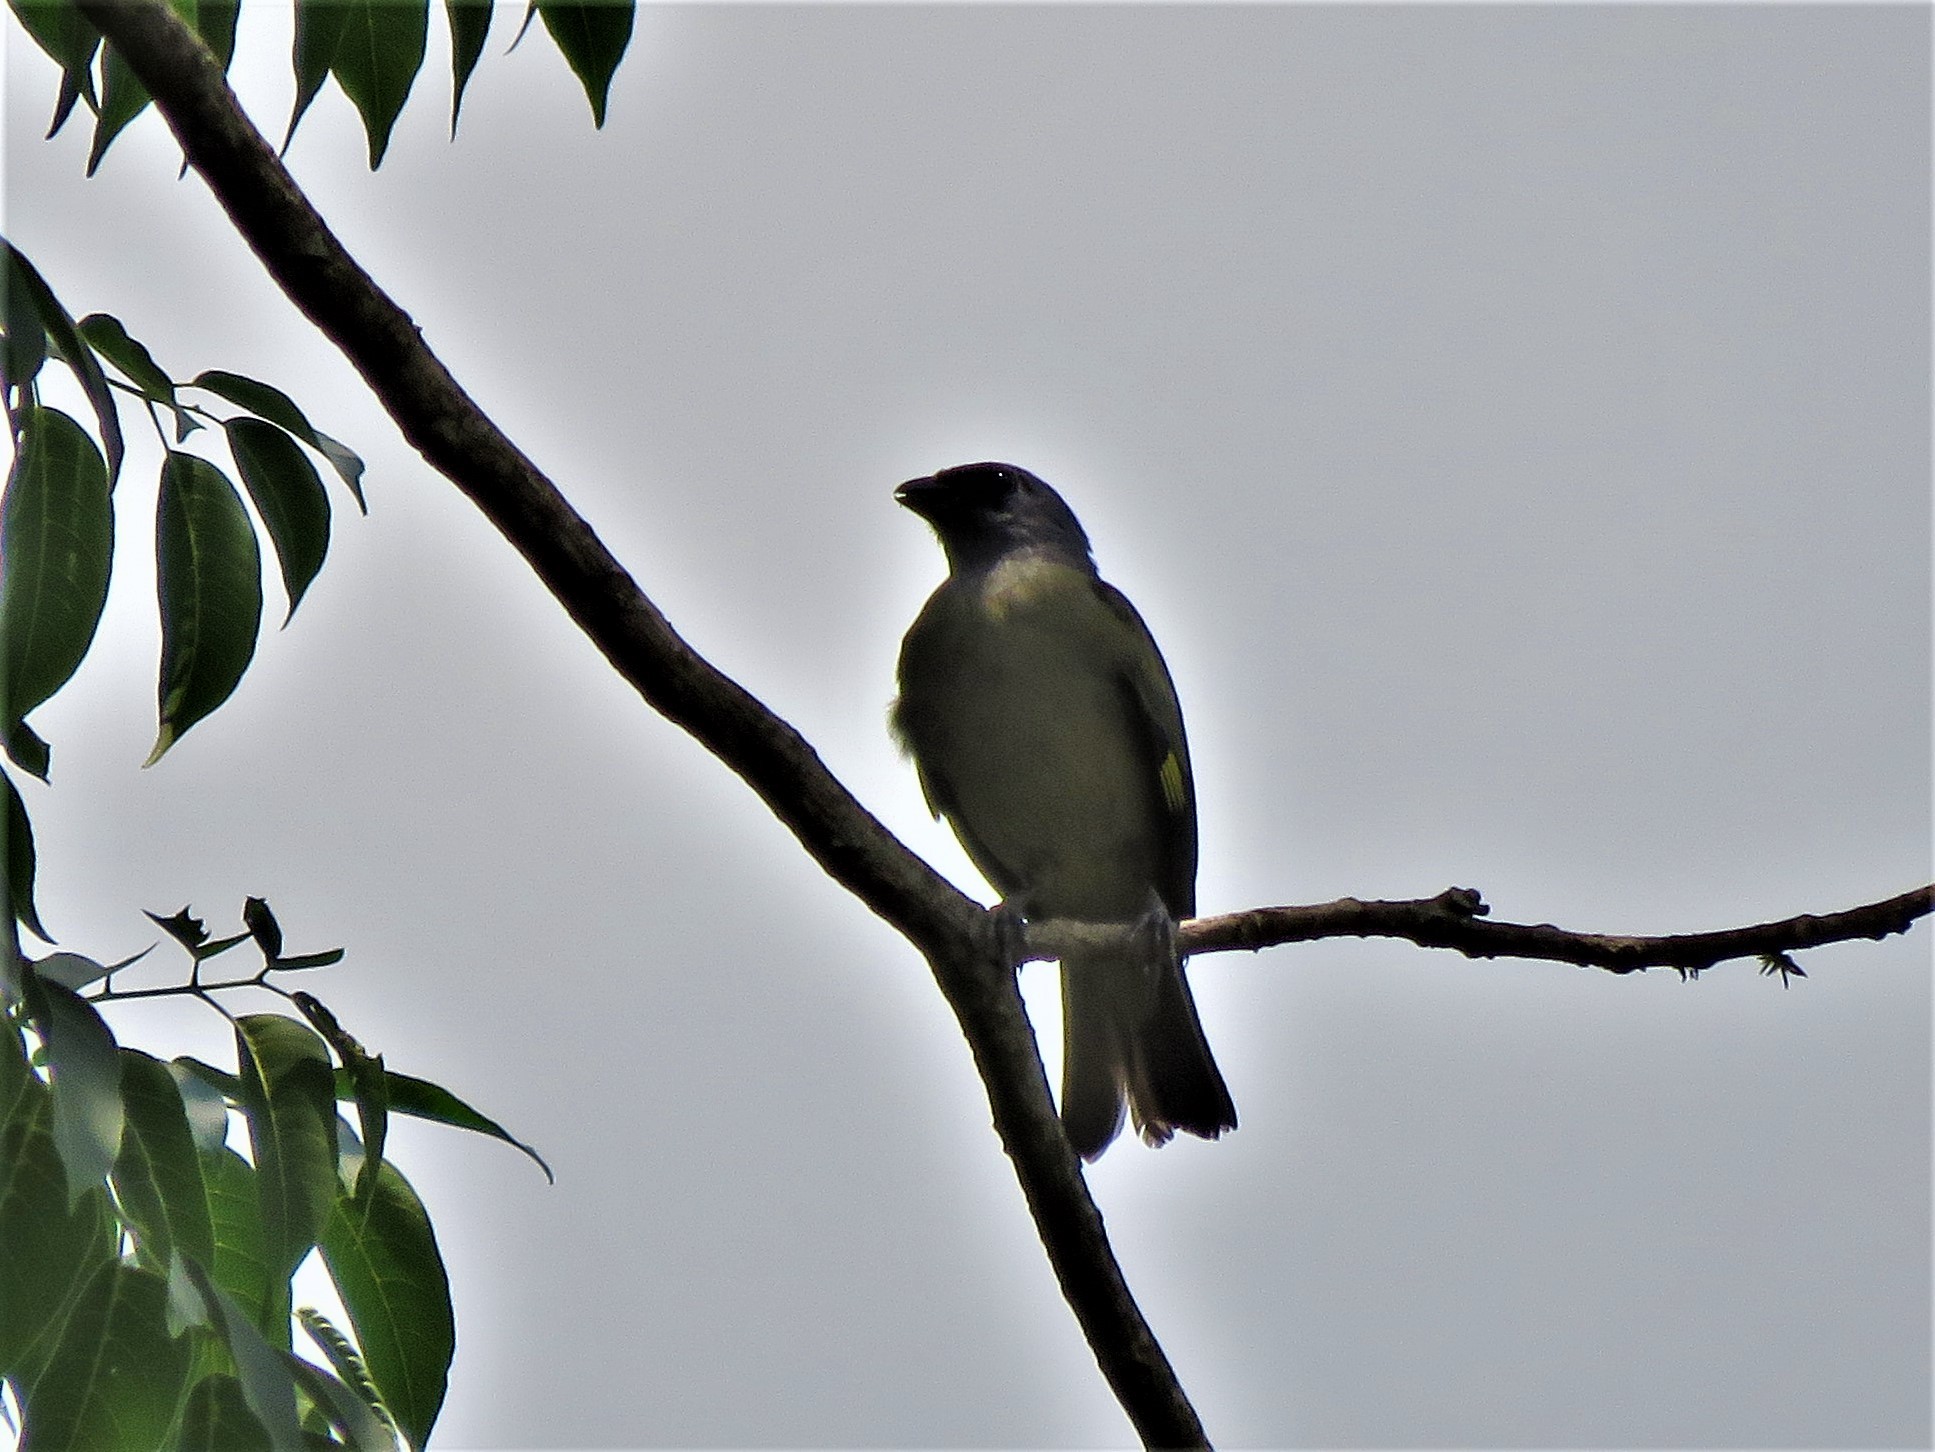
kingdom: Animalia
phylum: Chordata
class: Aves
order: Passeriformes
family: Thraupidae
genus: Thraupis
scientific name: Thraupis abbas
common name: Yellow-winged tanager
